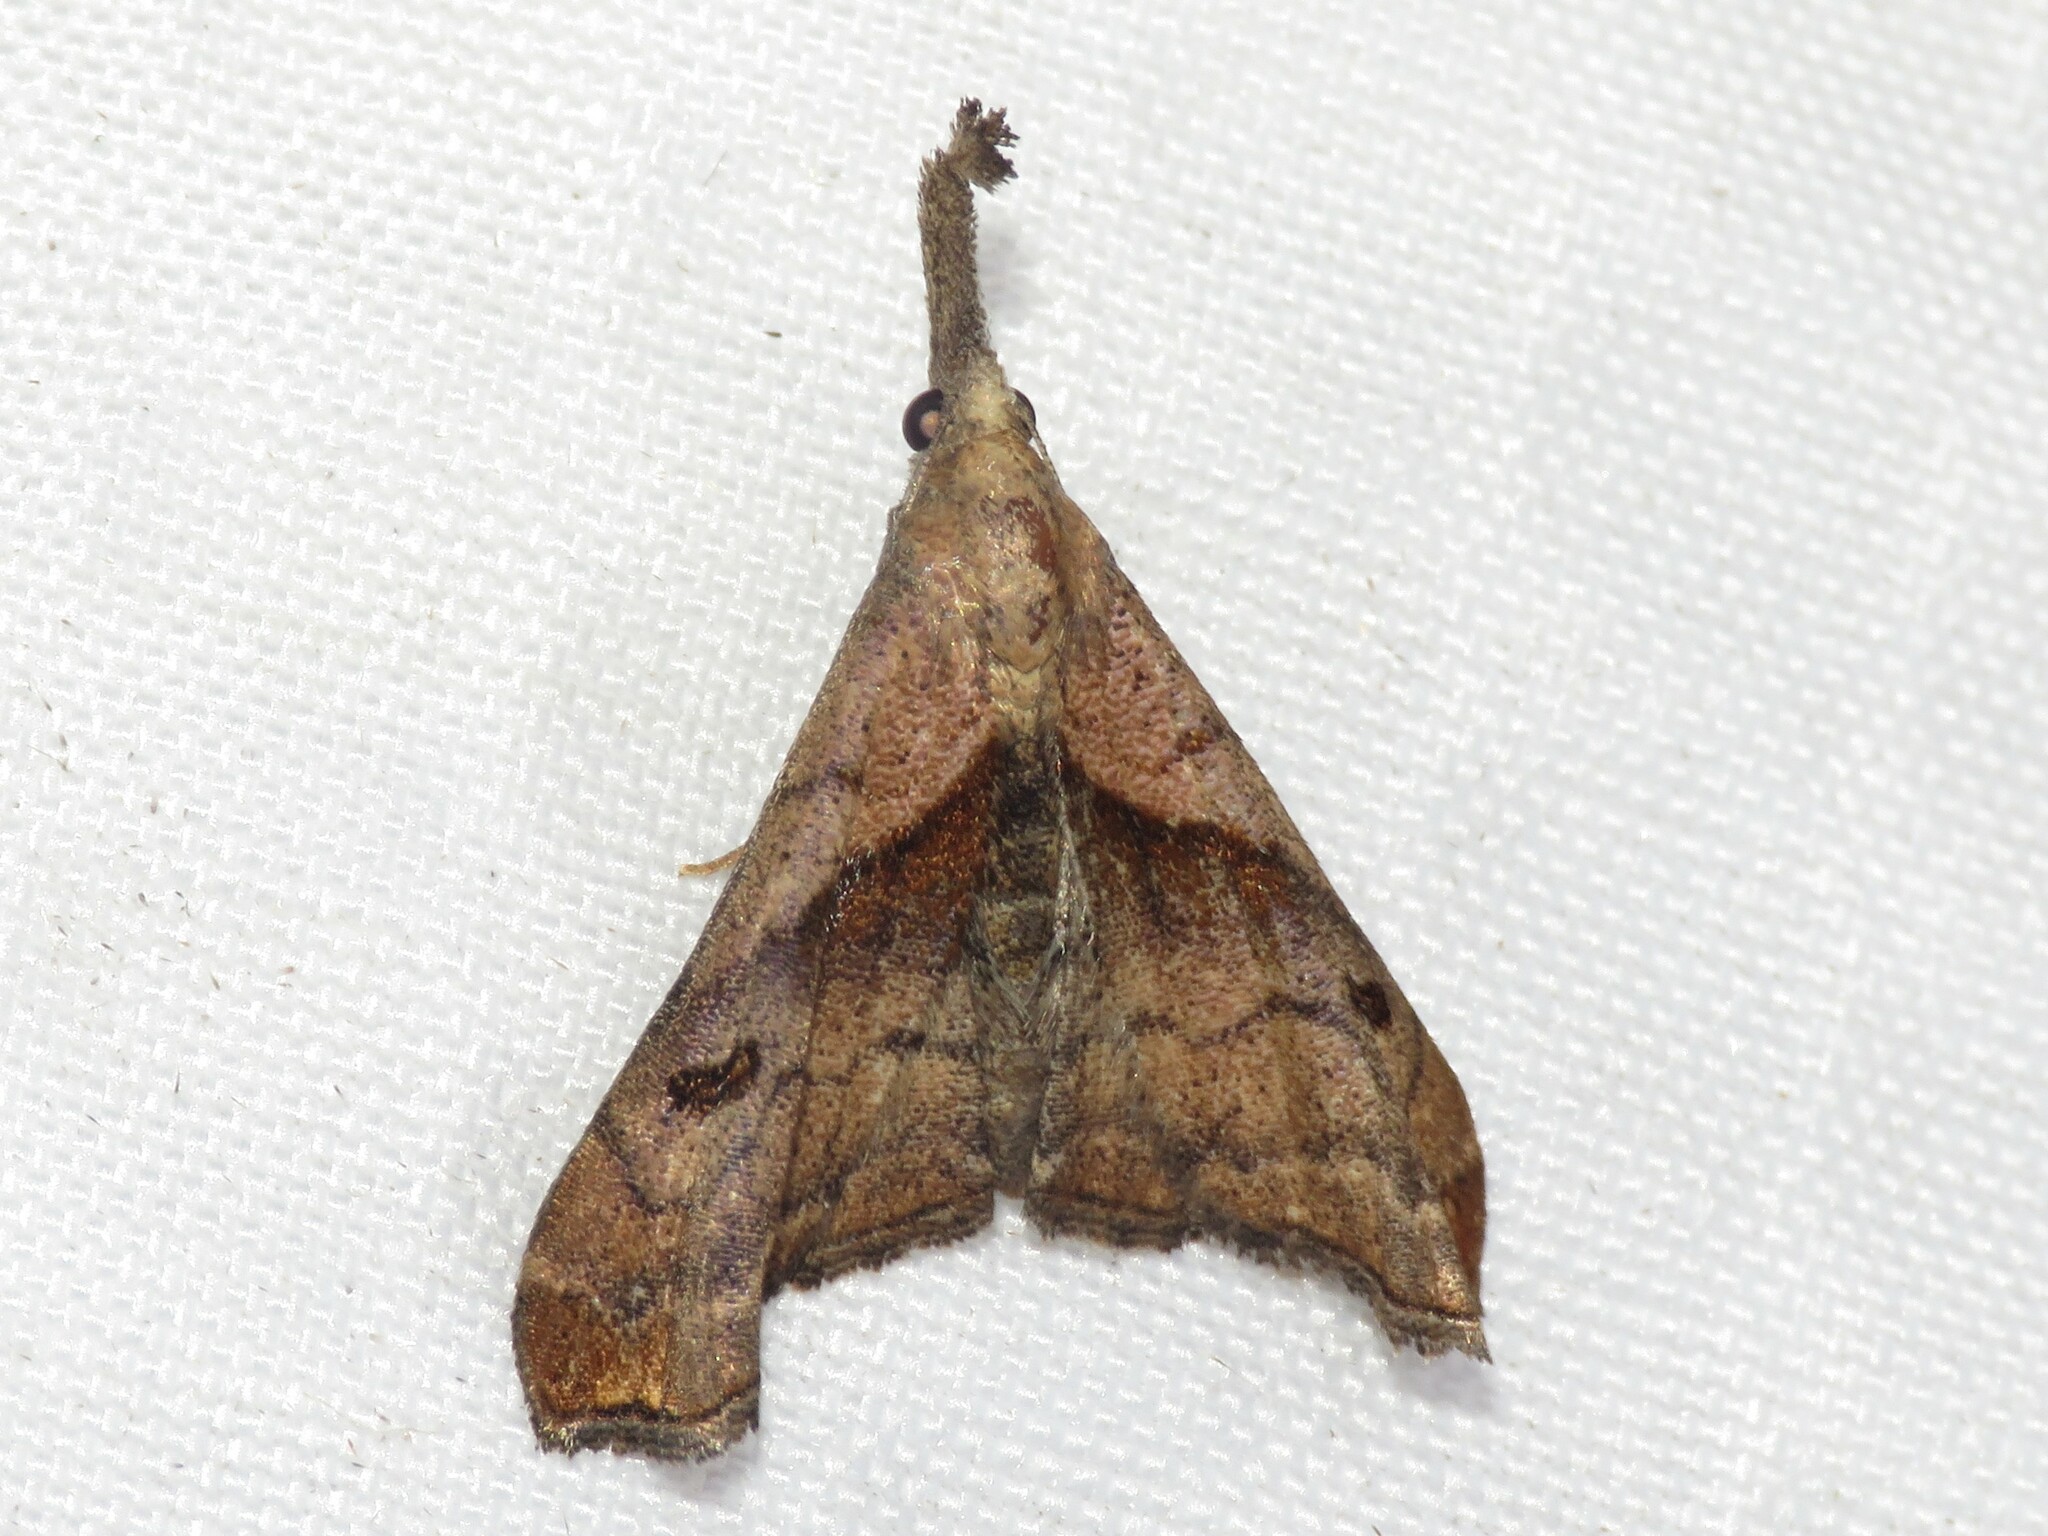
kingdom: Animalia
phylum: Arthropoda
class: Insecta
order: Lepidoptera
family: Erebidae
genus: Palthis
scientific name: Palthis angulalis
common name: Dark-spotted palthis moth
